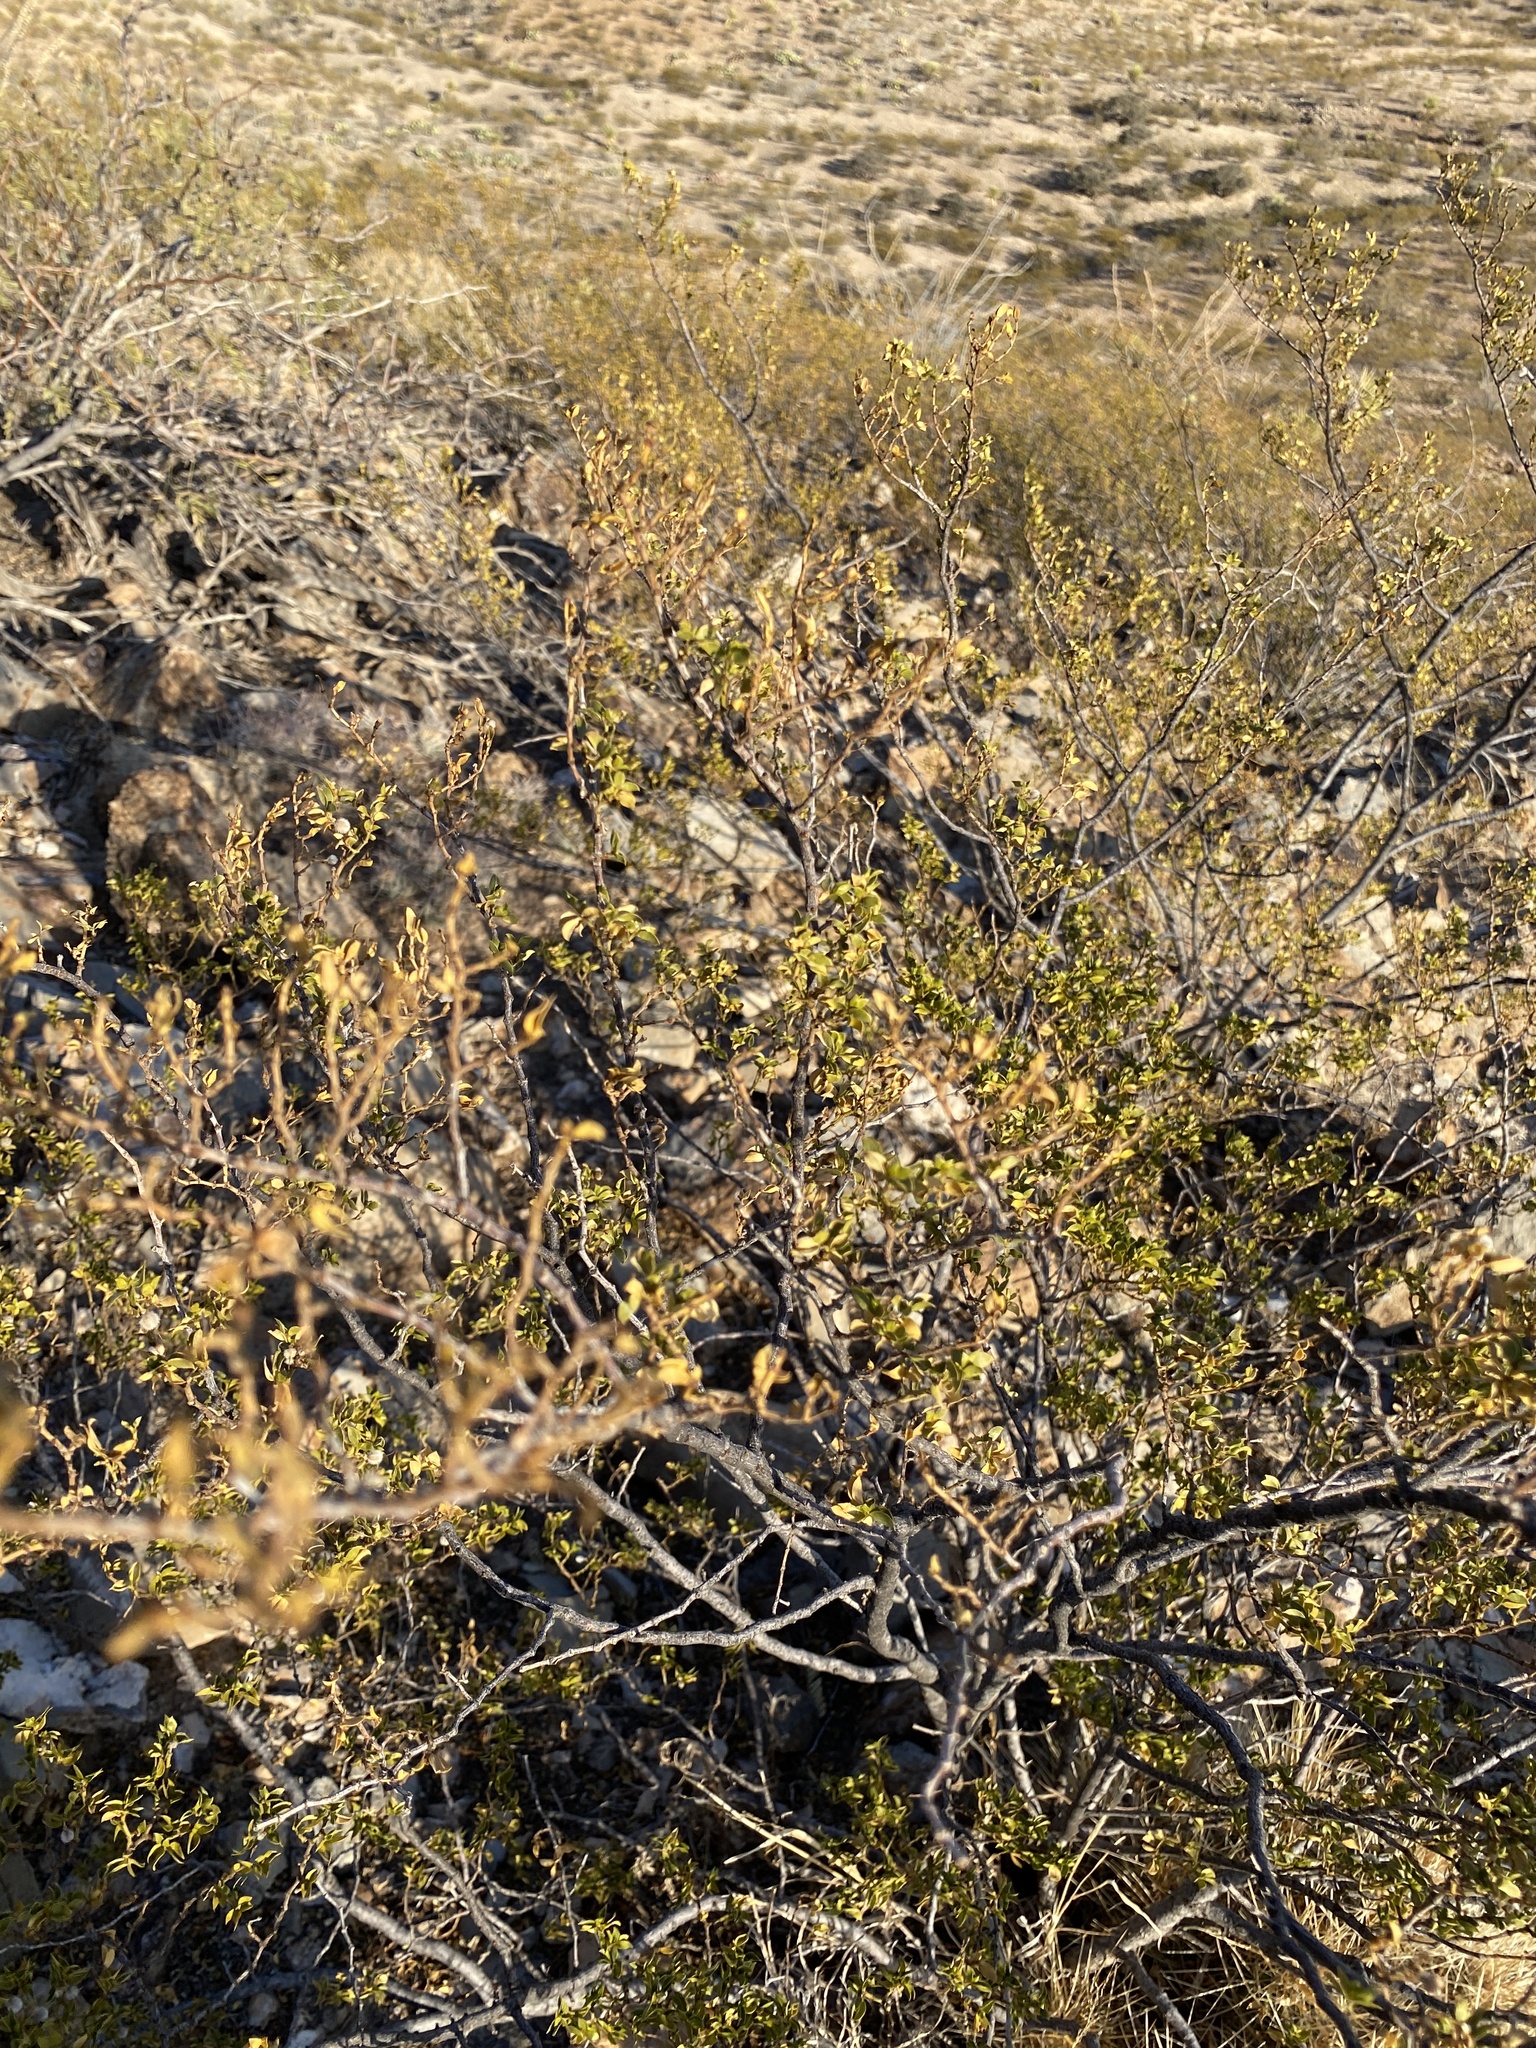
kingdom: Plantae
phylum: Tracheophyta
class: Magnoliopsida
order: Zygophyllales
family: Zygophyllaceae
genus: Larrea
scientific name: Larrea tridentata
